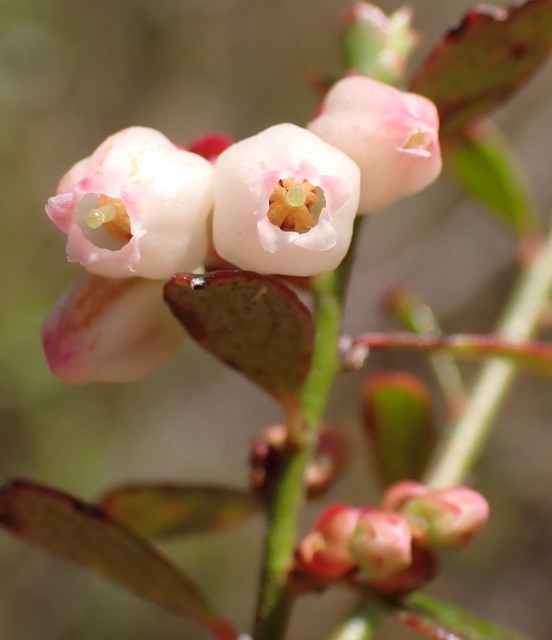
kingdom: Plantae
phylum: Tracheophyta
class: Magnoliopsida
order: Ericales
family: Ericaceae
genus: Vaccinium
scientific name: Vaccinium myrsinites
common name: Evergreen blueberry
